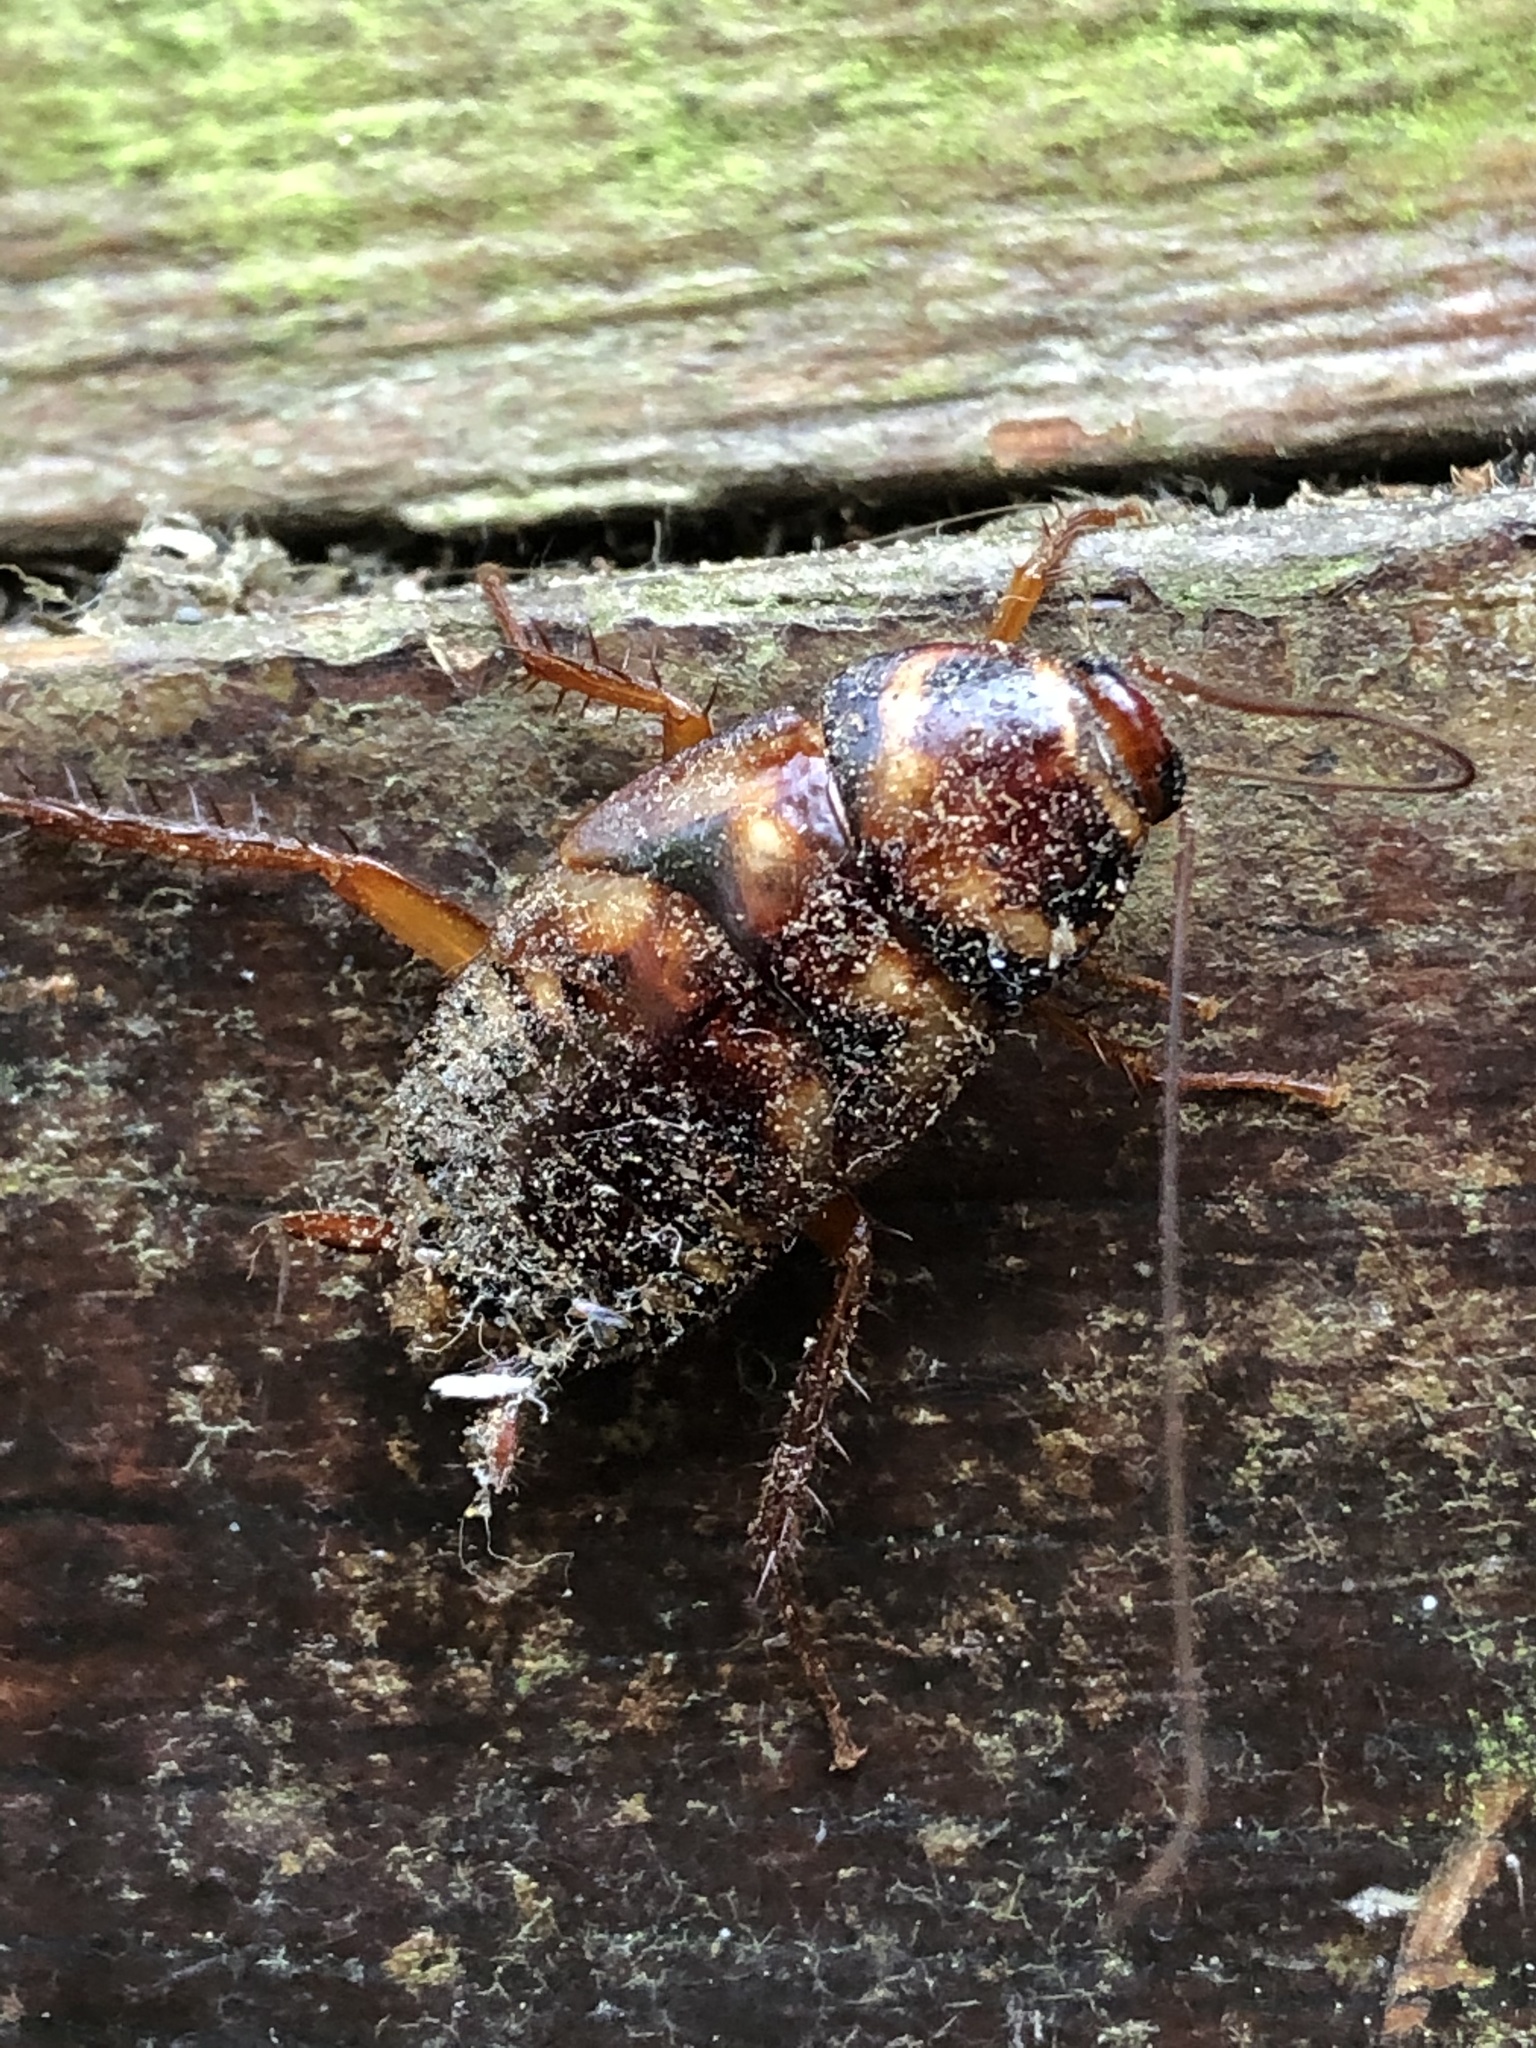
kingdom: Animalia
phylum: Arthropoda
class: Insecta
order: Blattodea
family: Blattidae
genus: Periplaneta
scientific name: Periplaneta australasiae
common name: Australian cockroach
